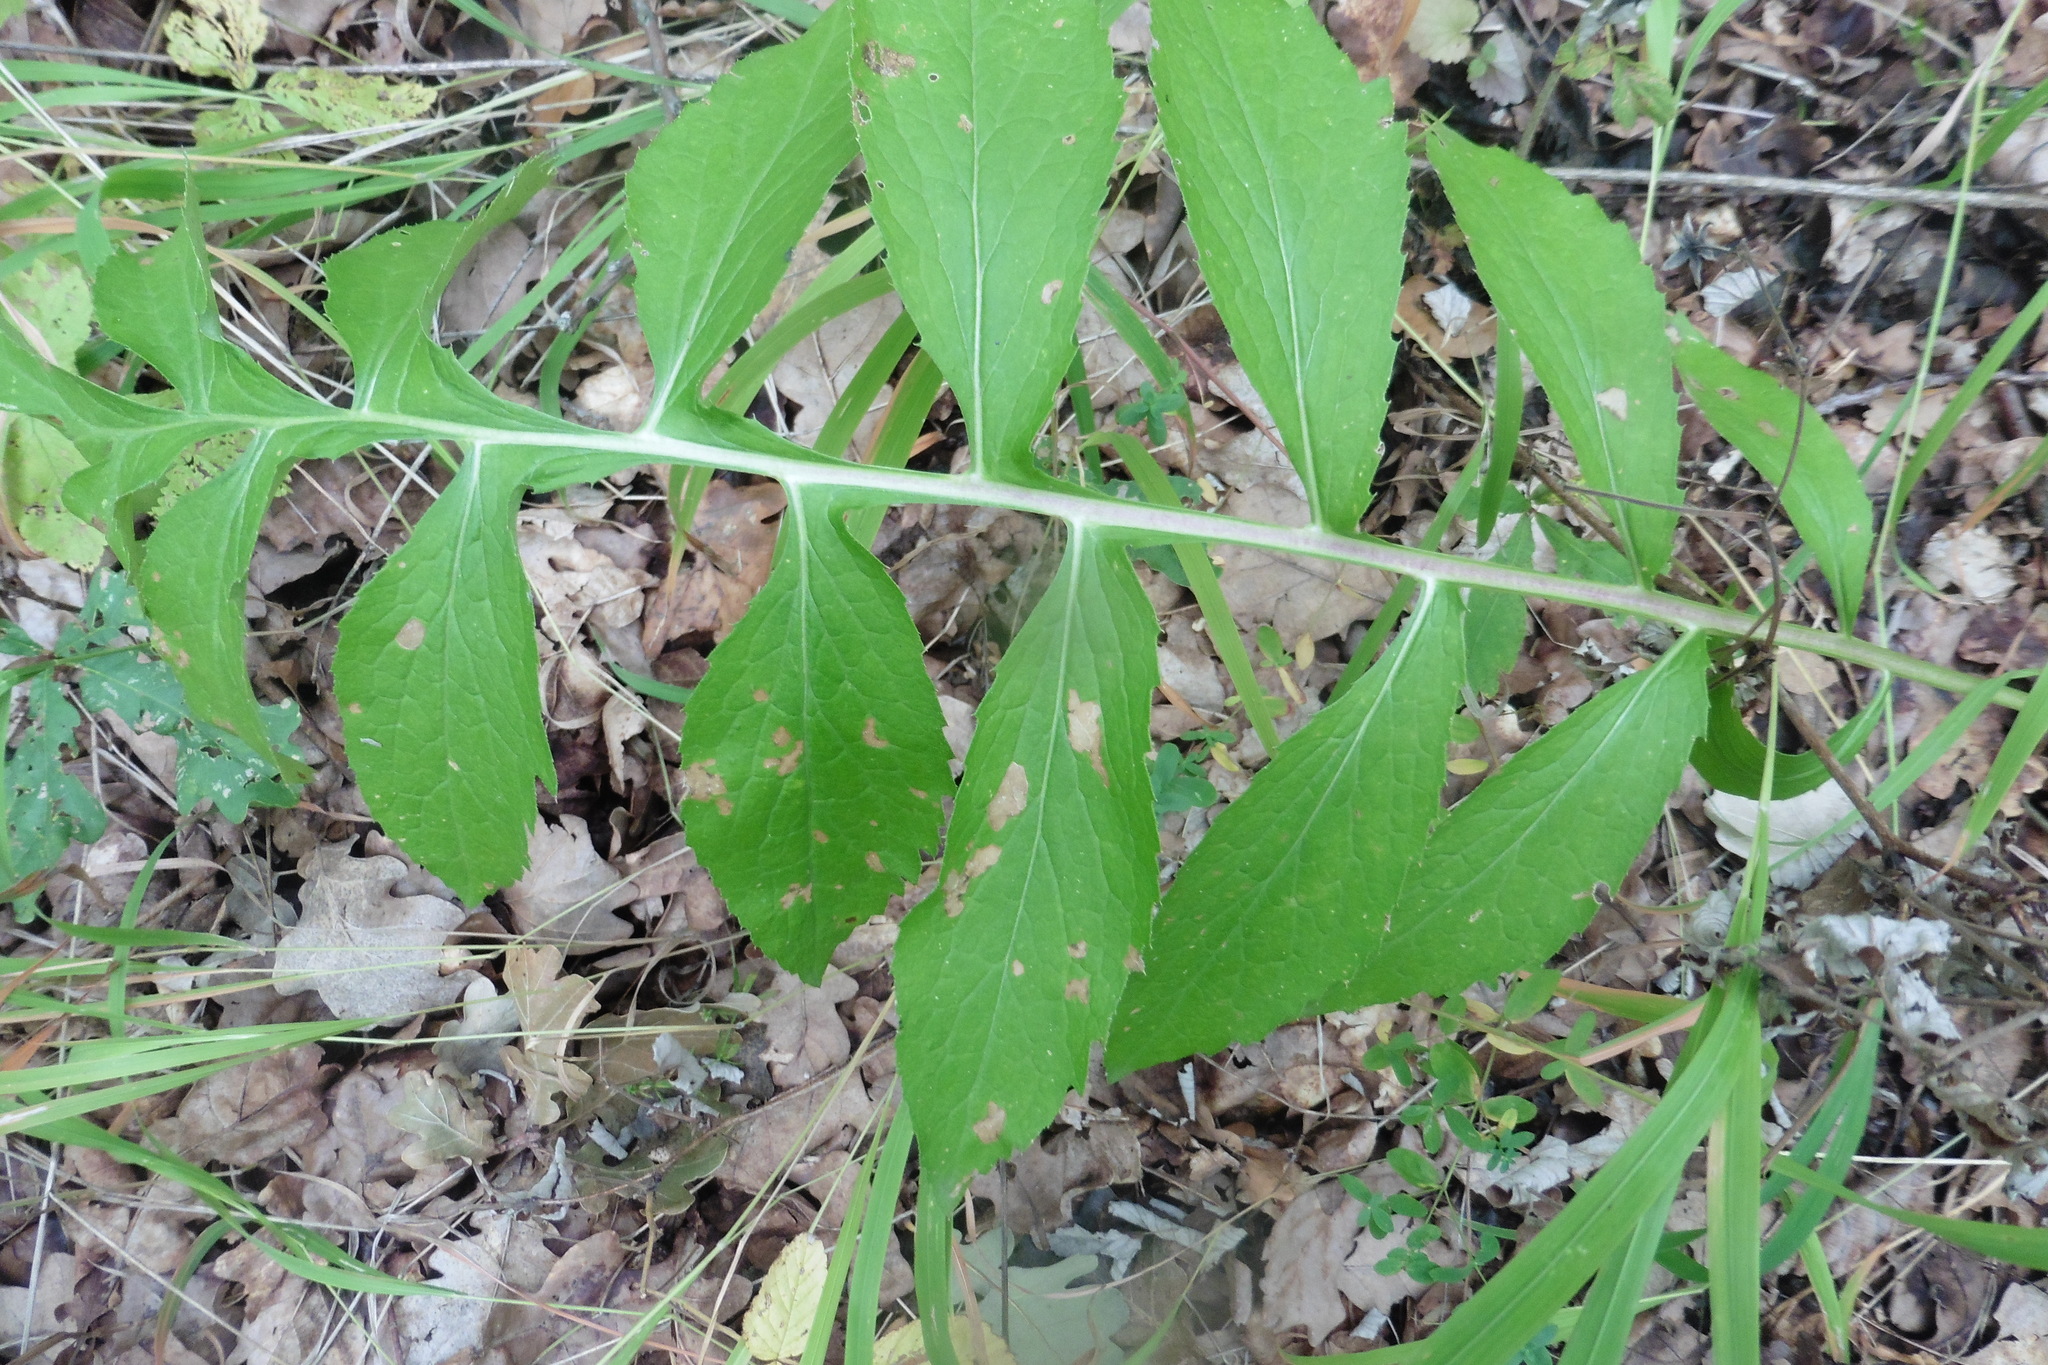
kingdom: Plantae
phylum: Tracheophyta
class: Magnoliopsida
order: Asterales
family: Asteraceae
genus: Serratula
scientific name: Serratula coronata
